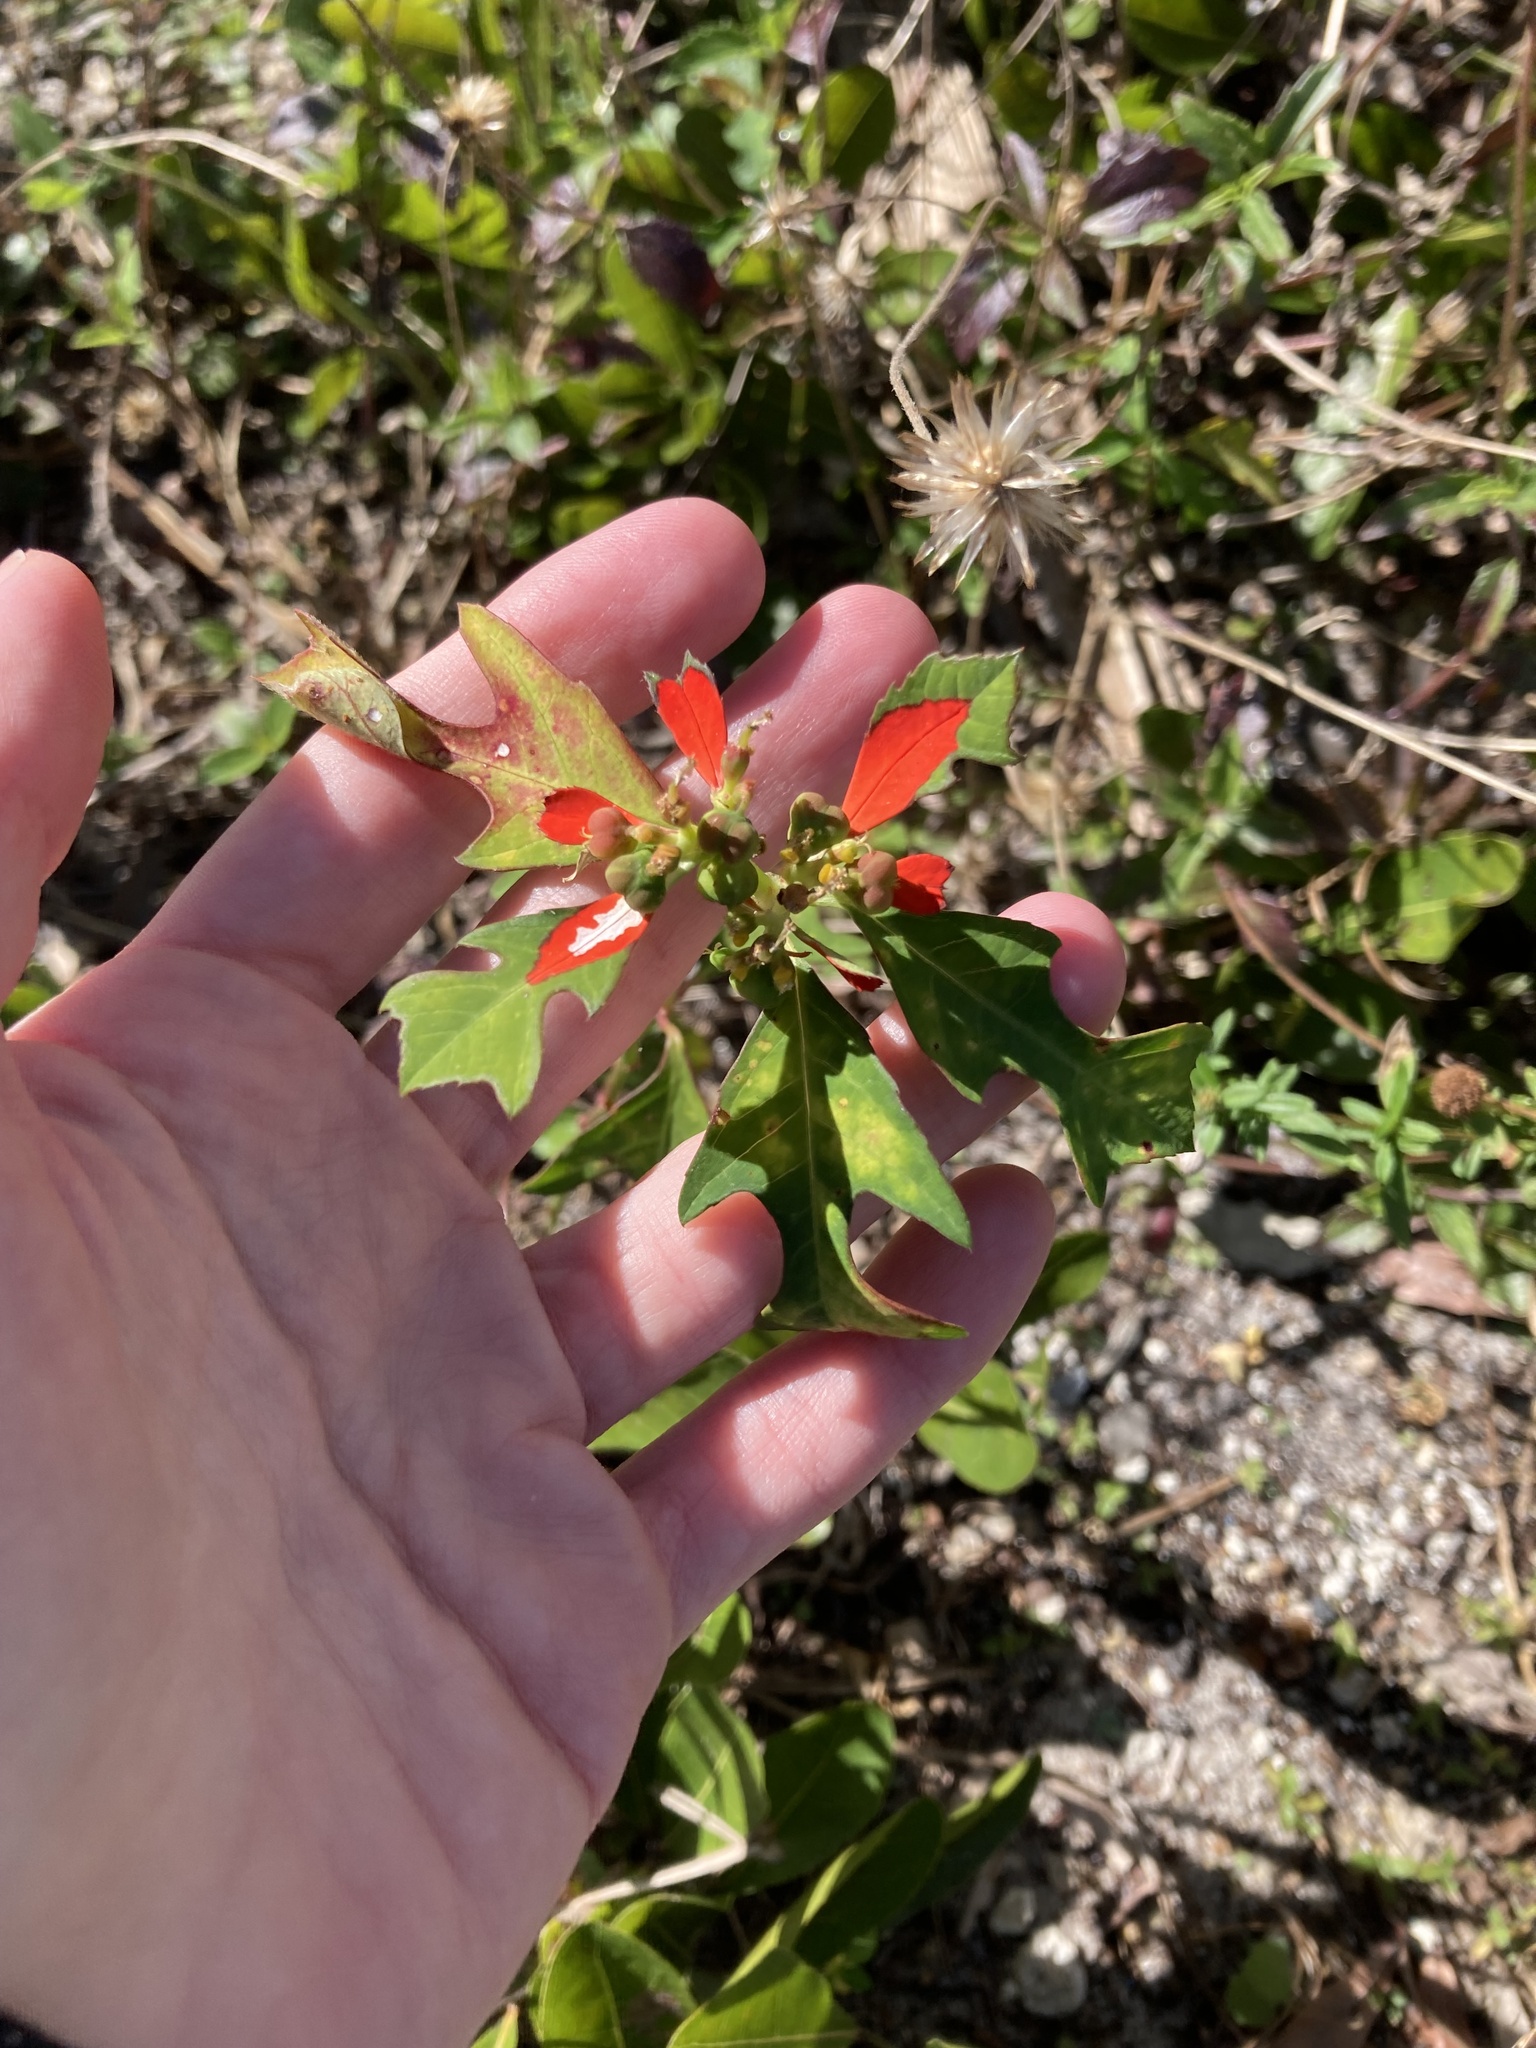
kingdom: Plantae
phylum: Tracheophyta
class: Magnoliopsida
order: Malpighiales
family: Euphorbiaceae
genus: Euphorbia
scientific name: Euphorbia heterophylla
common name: Mexican fireplant
